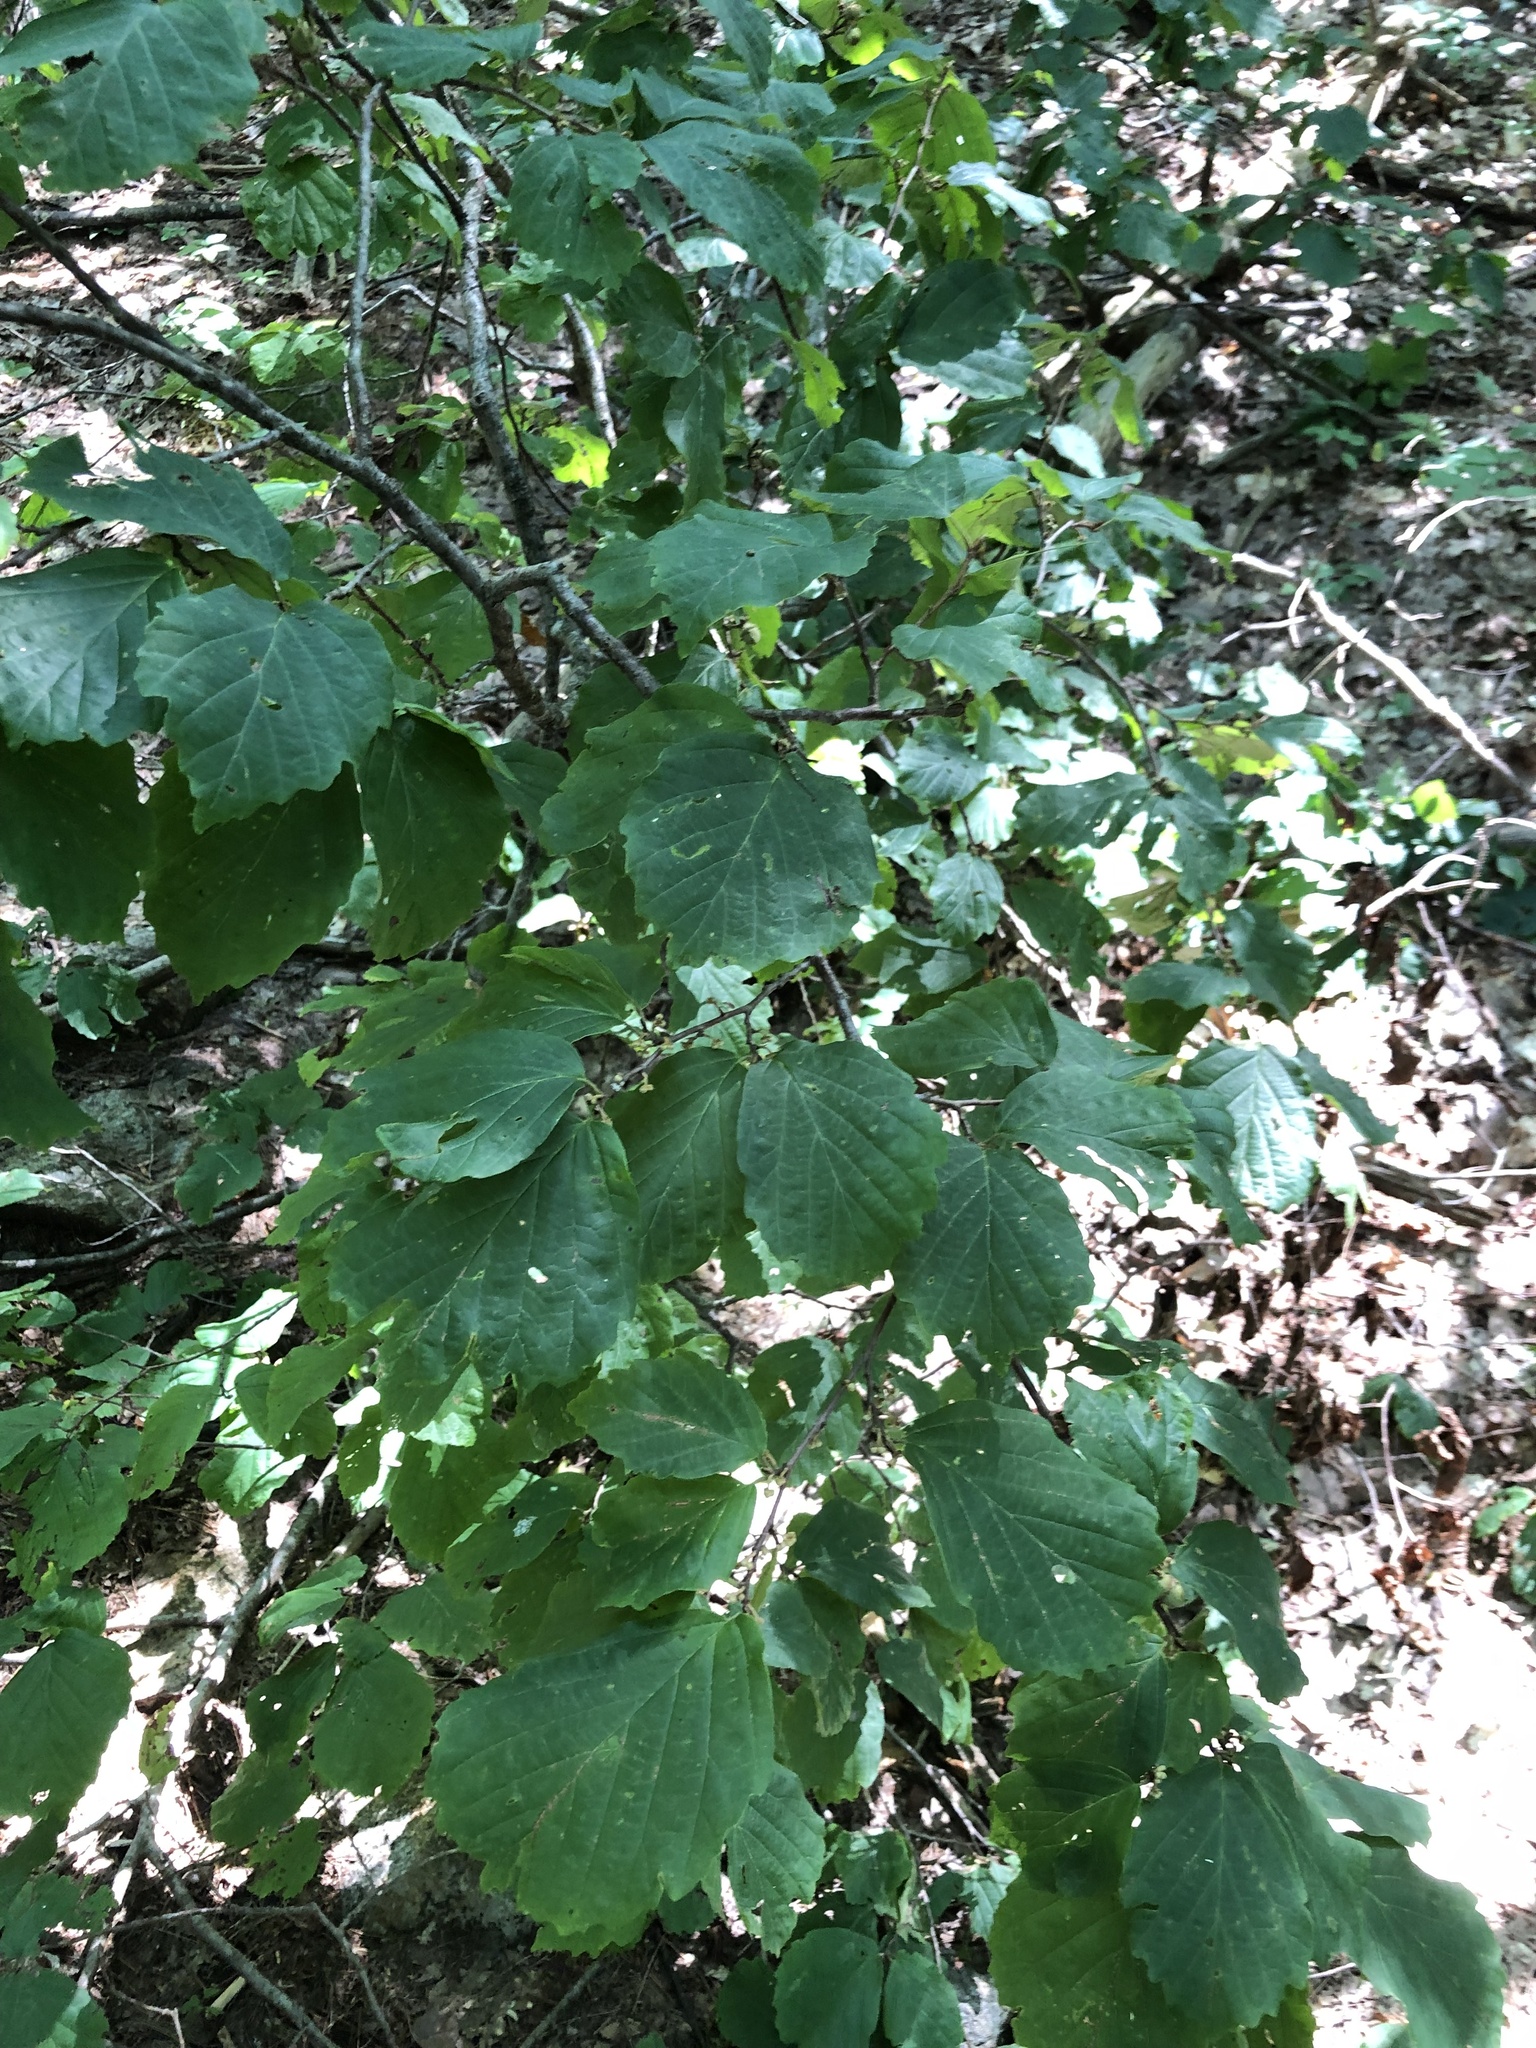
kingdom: Plantae
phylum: Tracheophyta
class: Magnoliopsida
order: Saxifragales
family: Hamamelidaceae
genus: Hamamelis
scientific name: Hamamelis virginiana
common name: Witch-hazel
